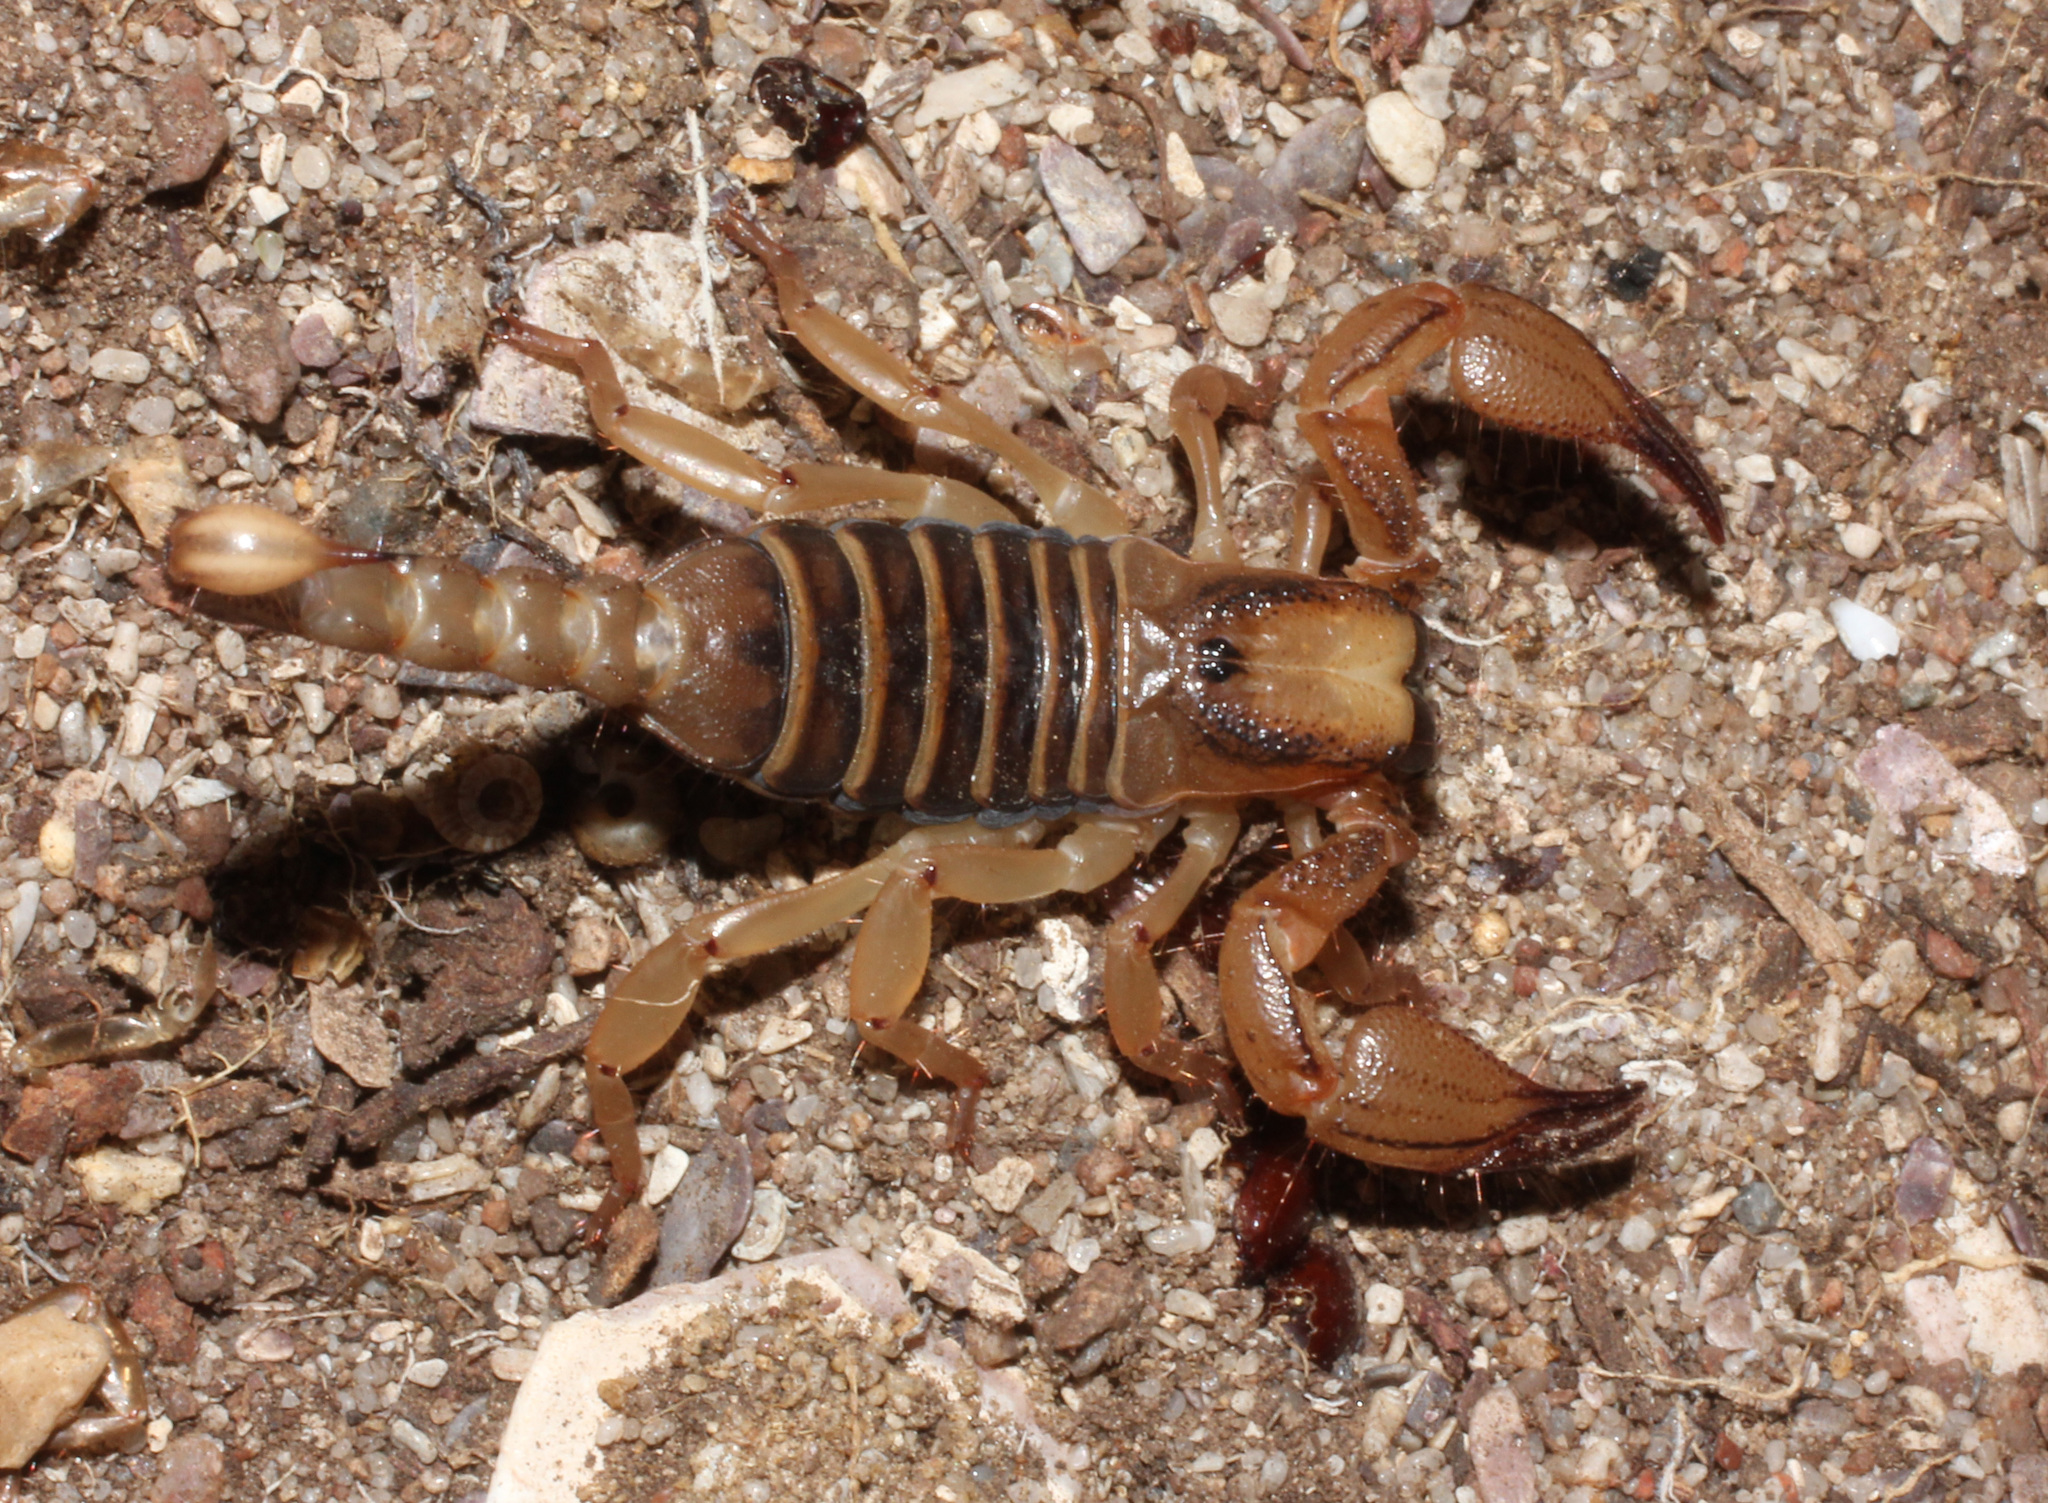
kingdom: Animalia
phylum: Arthropoda
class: Arachnida
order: Scorpiones
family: Scorpionidae
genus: Opistophthalmus
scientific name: Opistophthalmus capensis
